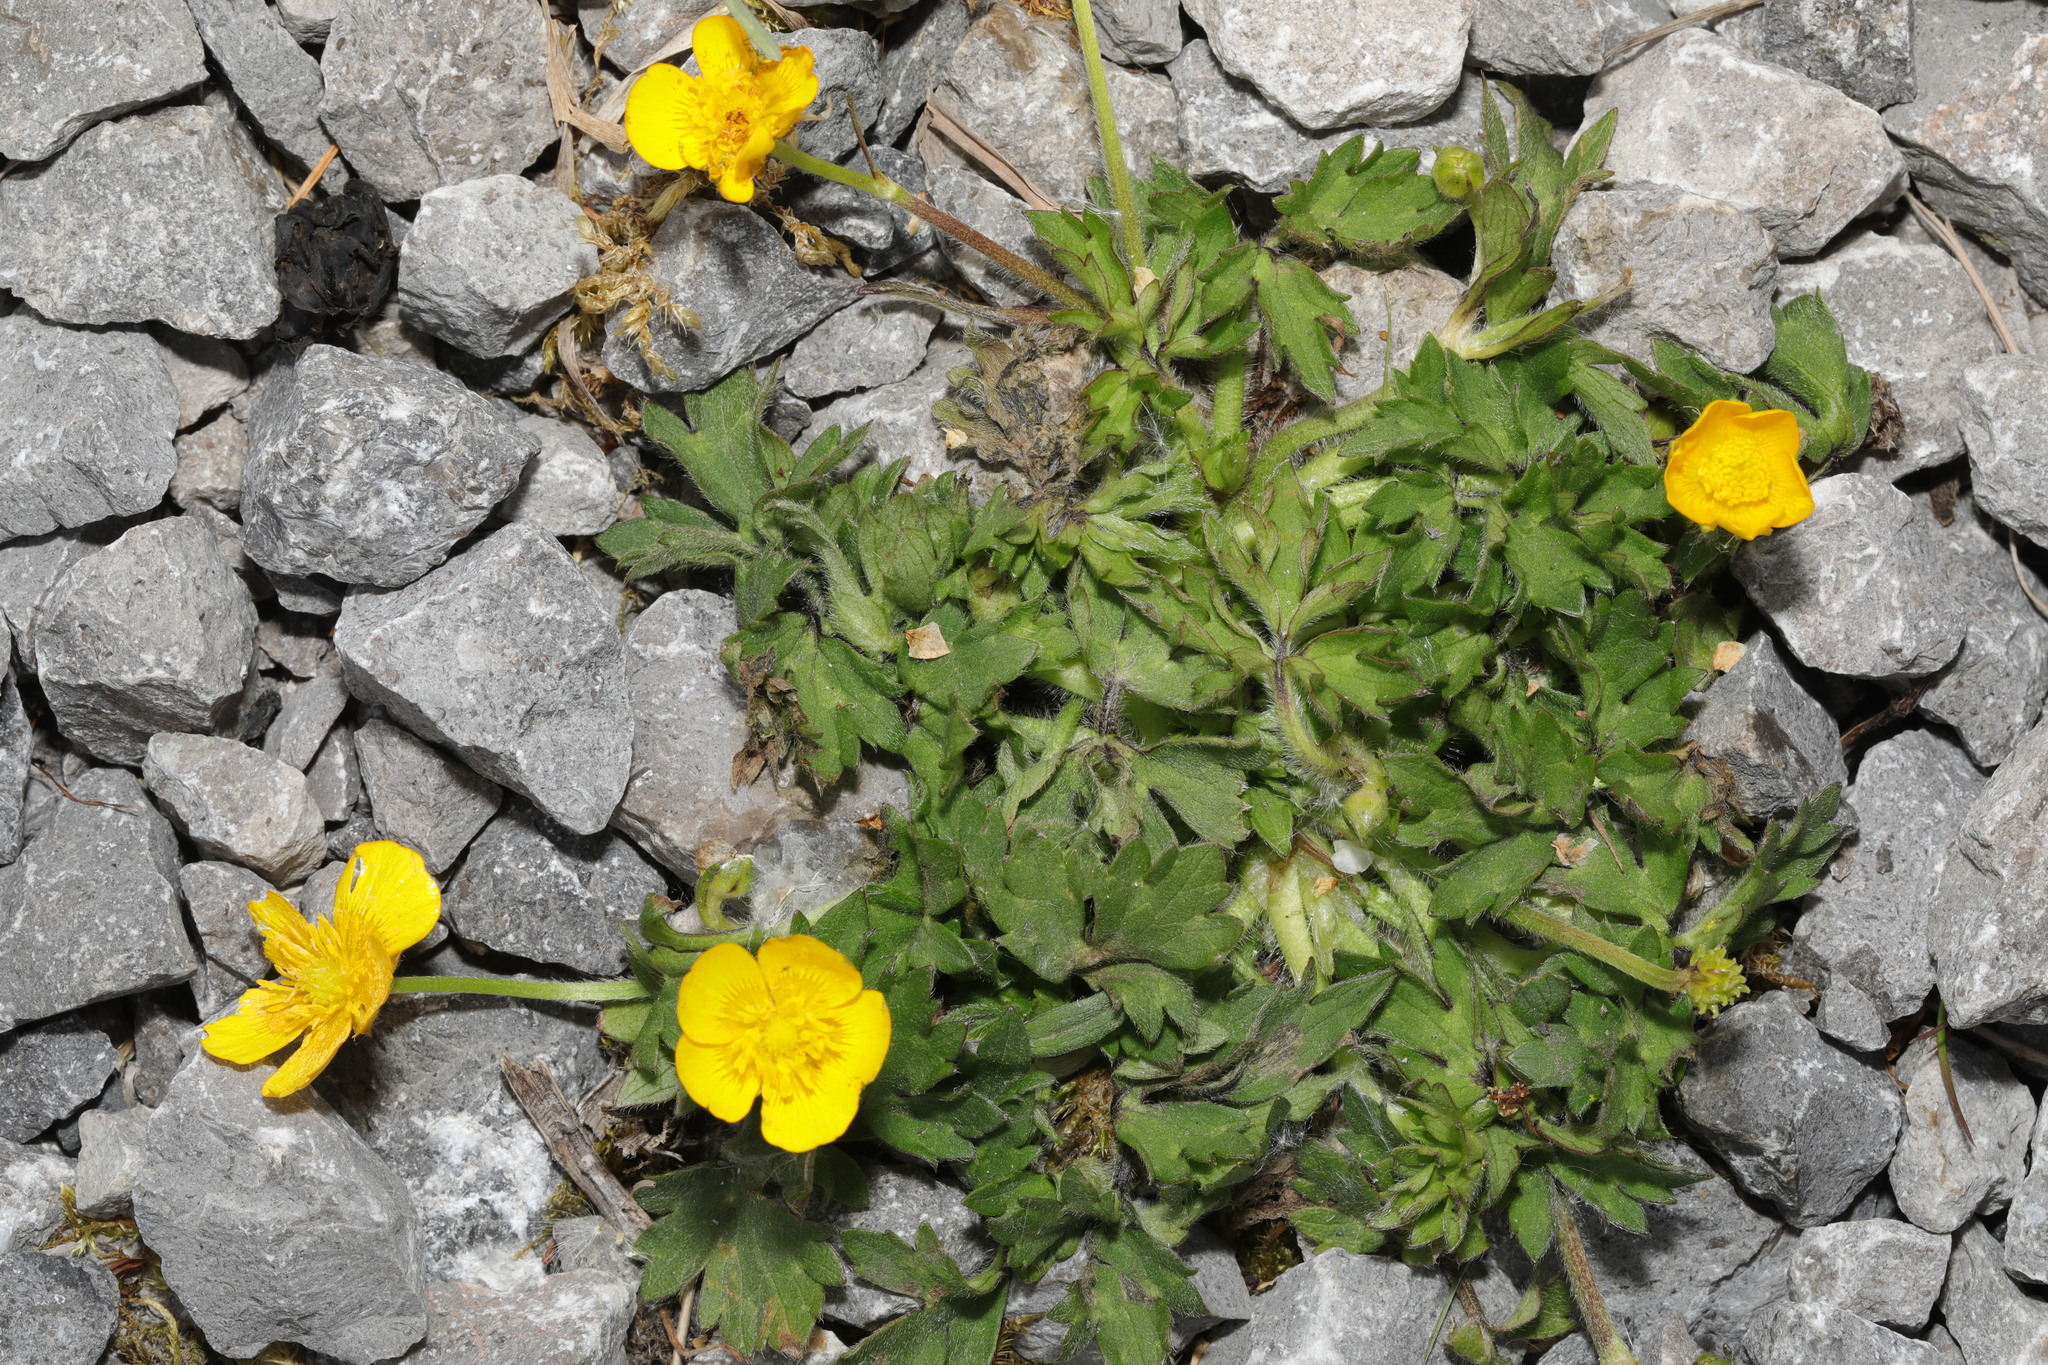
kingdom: Plantae
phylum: Tracheophyta
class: Magnoliopsida
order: Ranunculales
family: Ranunculaceae
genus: Ranunculus
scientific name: Ranunculus repens
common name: Creeping buttercup
